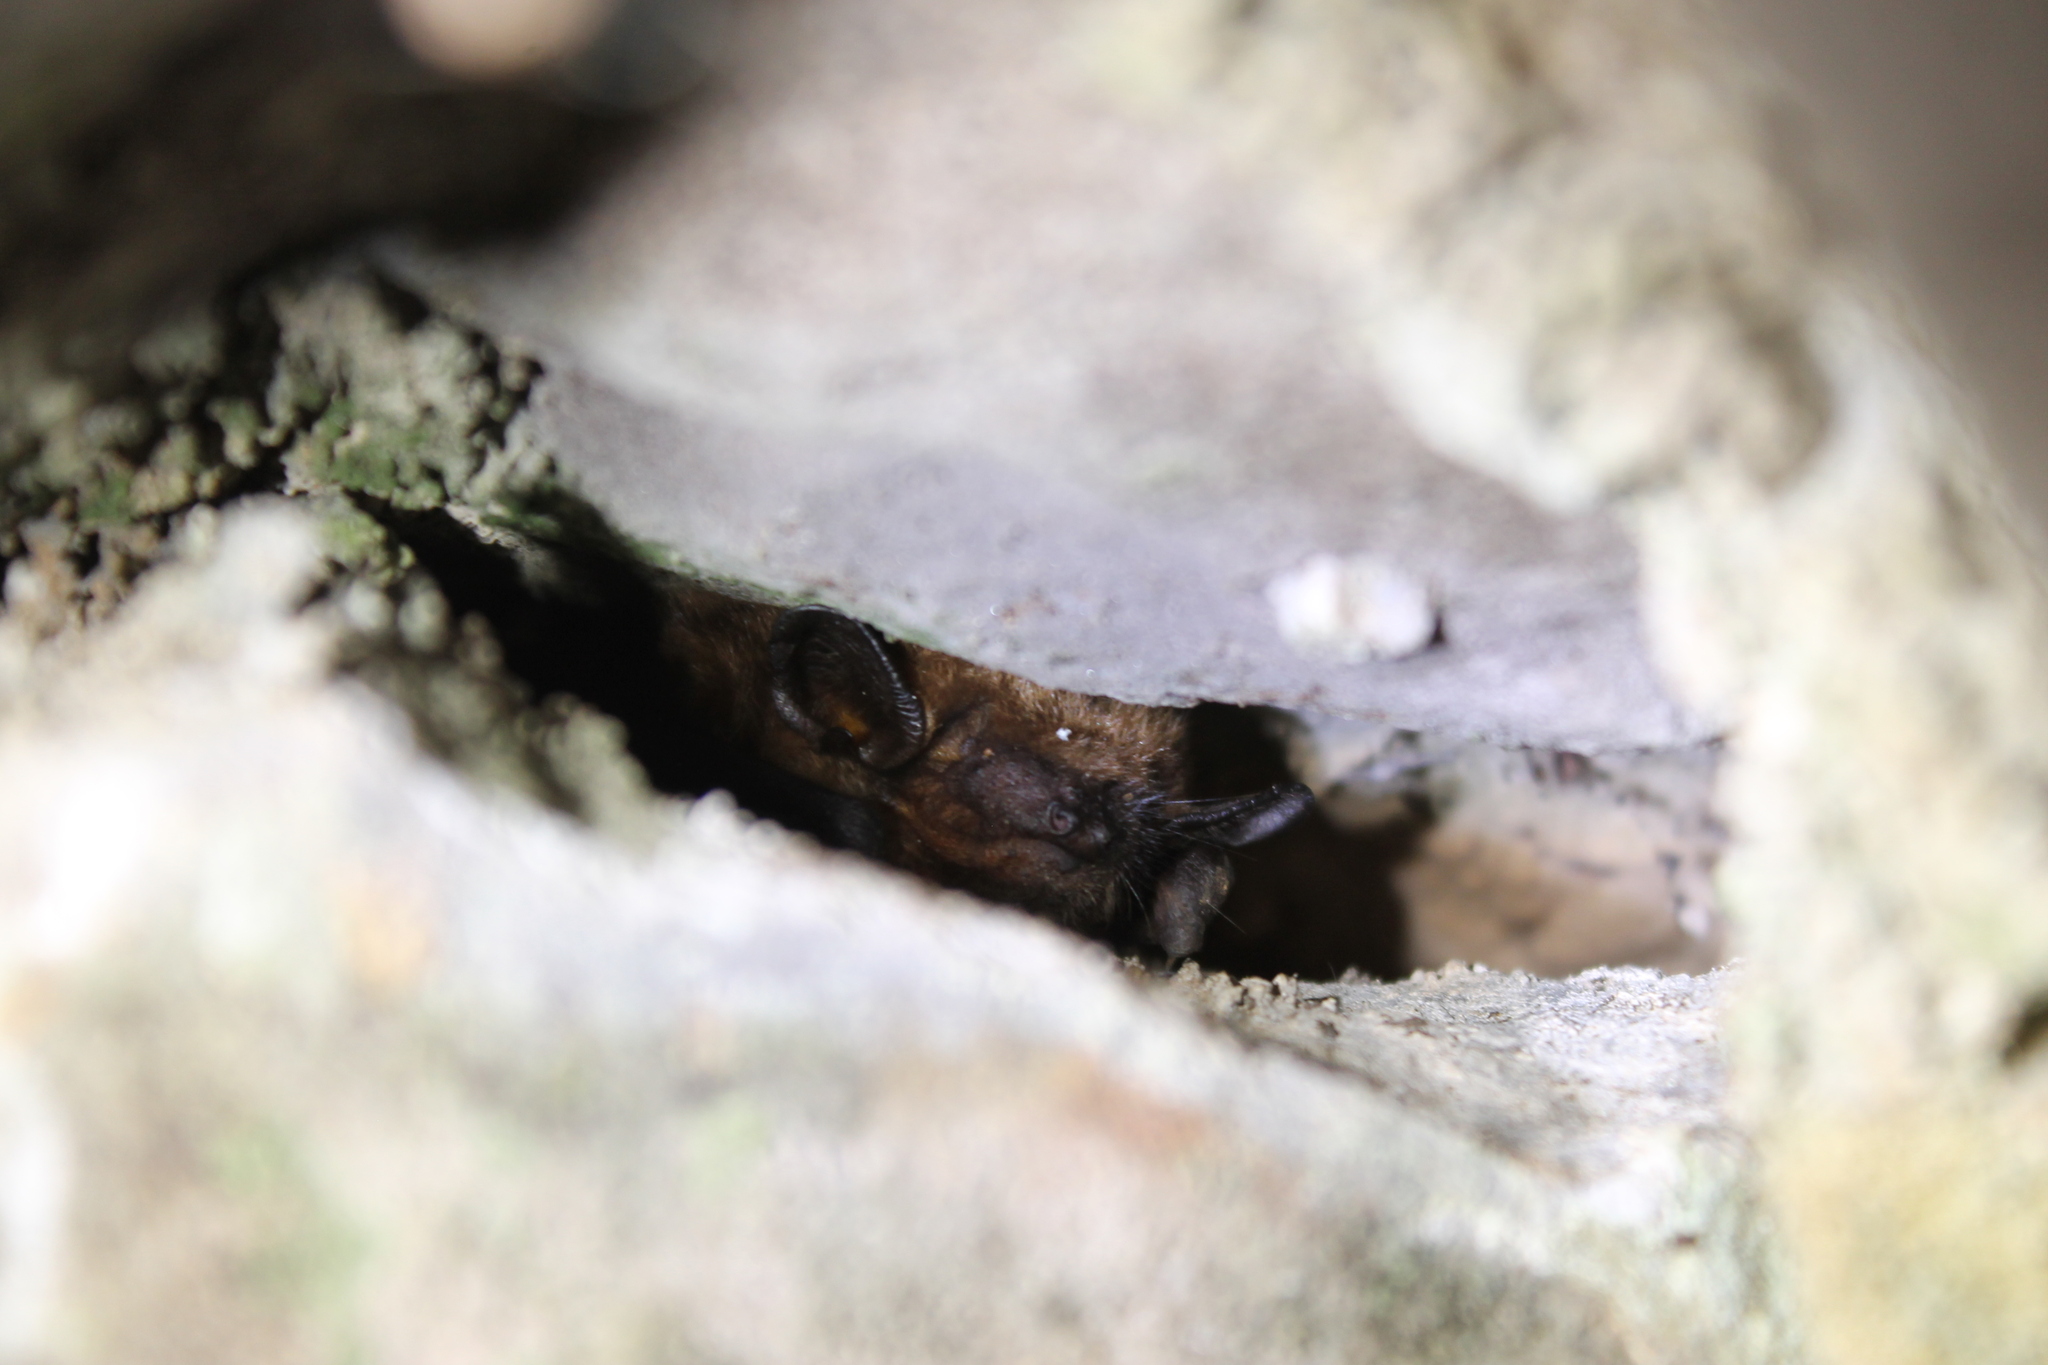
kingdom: Animalia
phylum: Chordata
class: Mammalia
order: Chiroptera
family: Vespertilionidae
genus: Eptesicus
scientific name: Eptesicus fuscus
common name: Big brown bat
